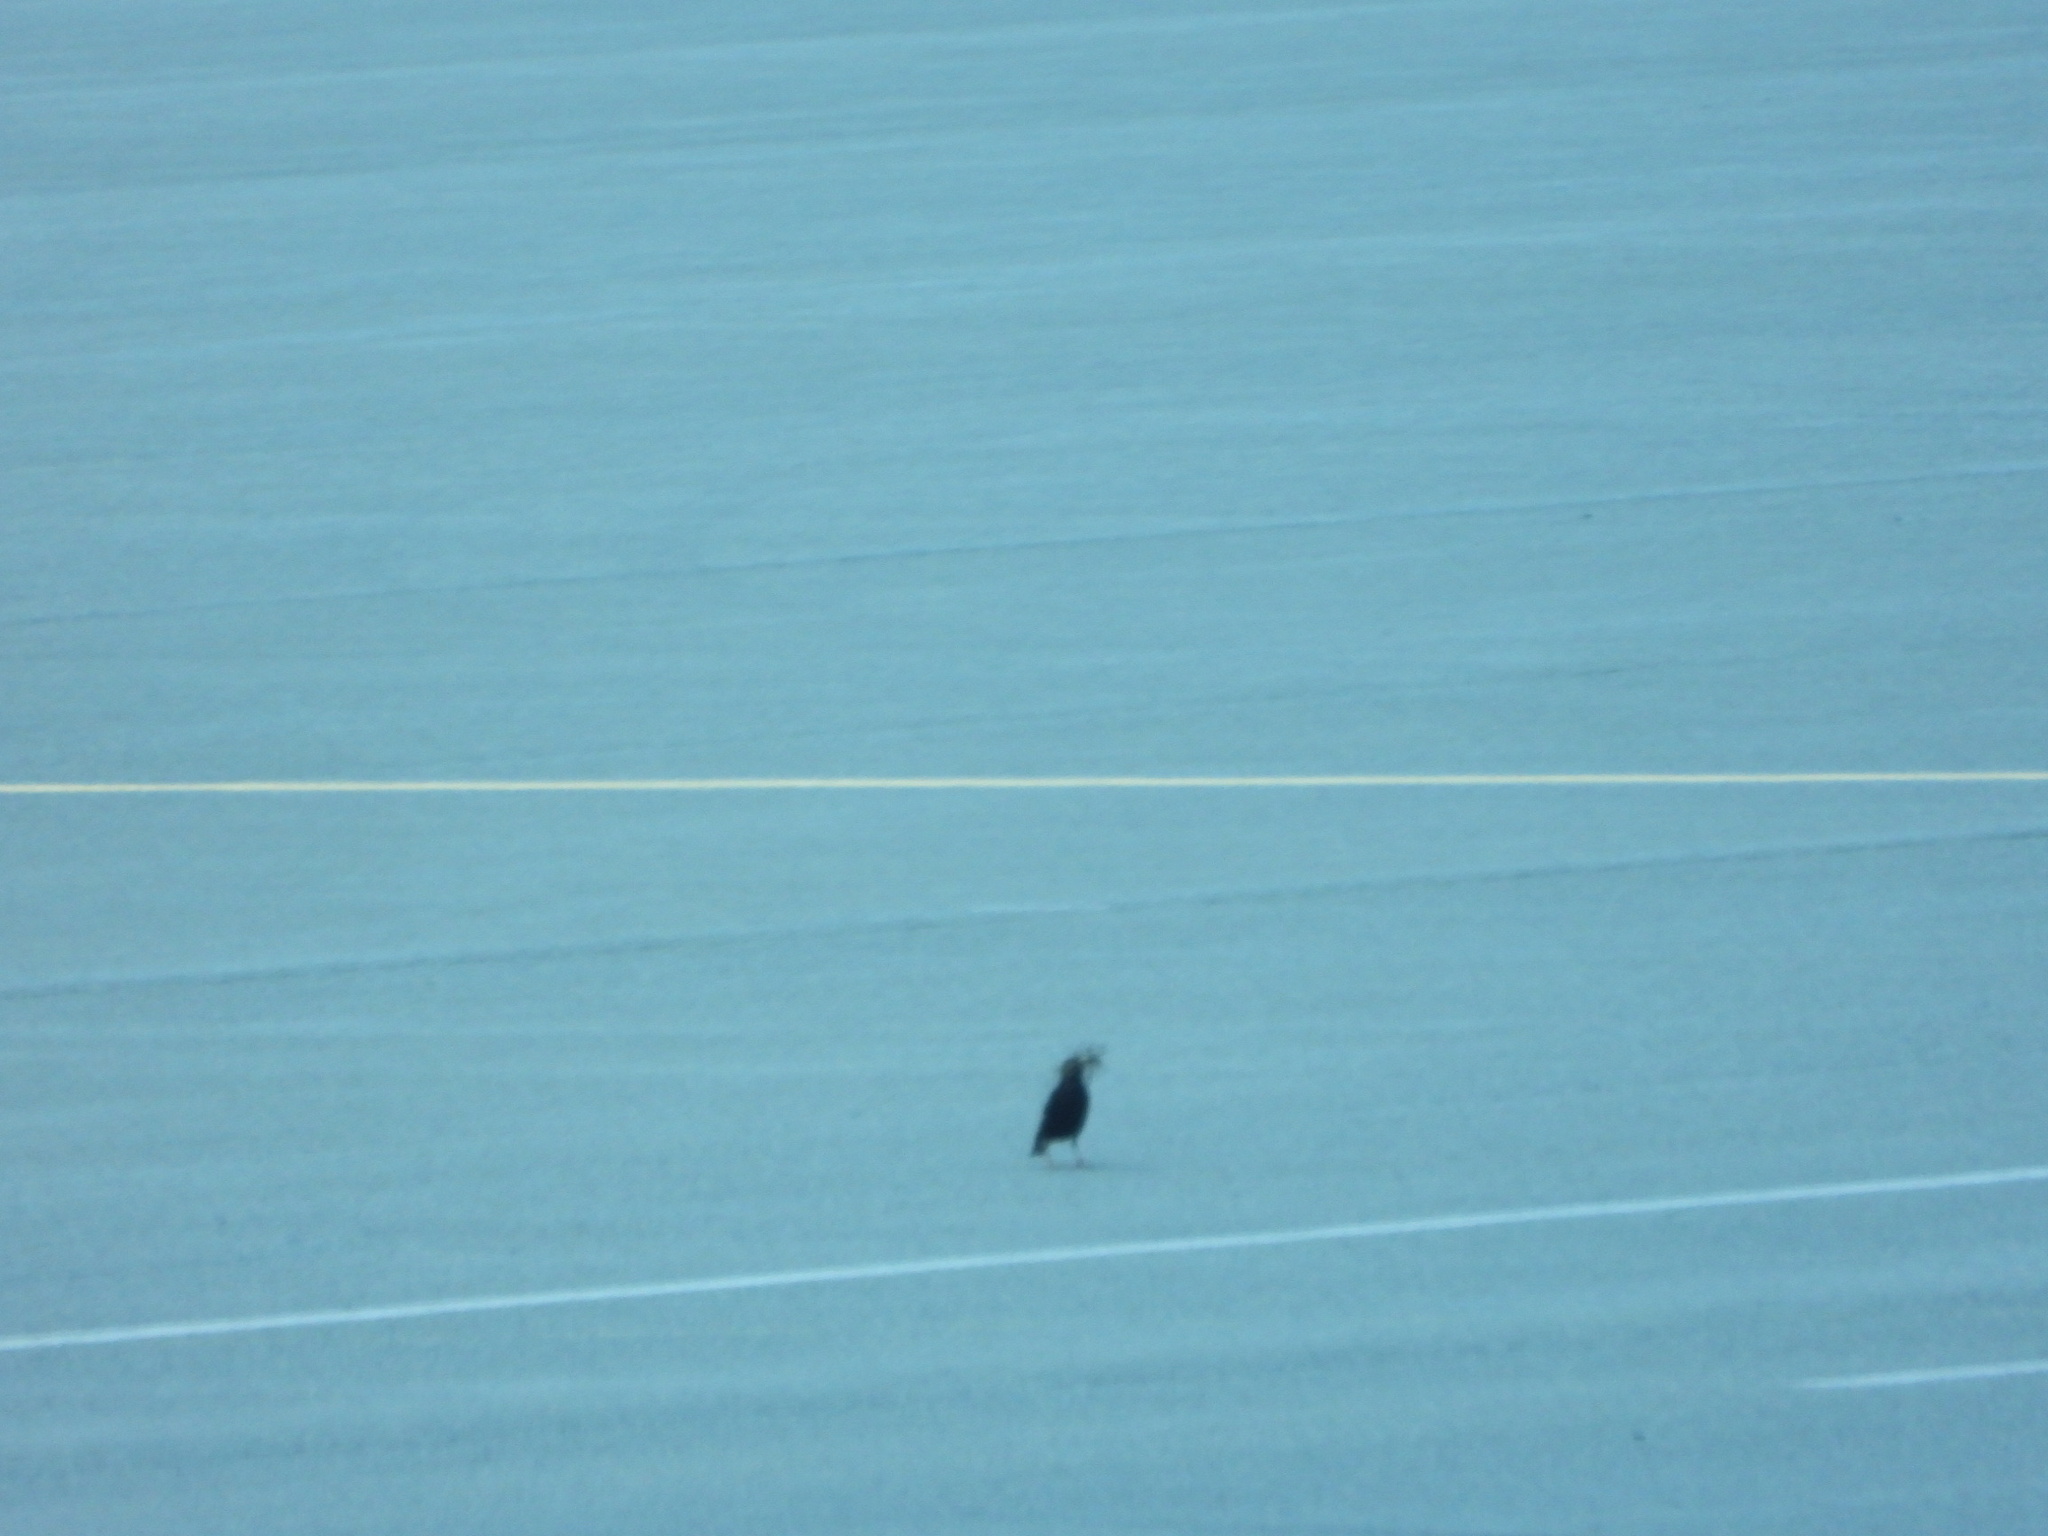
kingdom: Animalia
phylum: Chordata
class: Aves
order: Passeriformes
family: Sturnidae
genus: Sturnus
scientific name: Sturnus vulgaris
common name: Common starling
